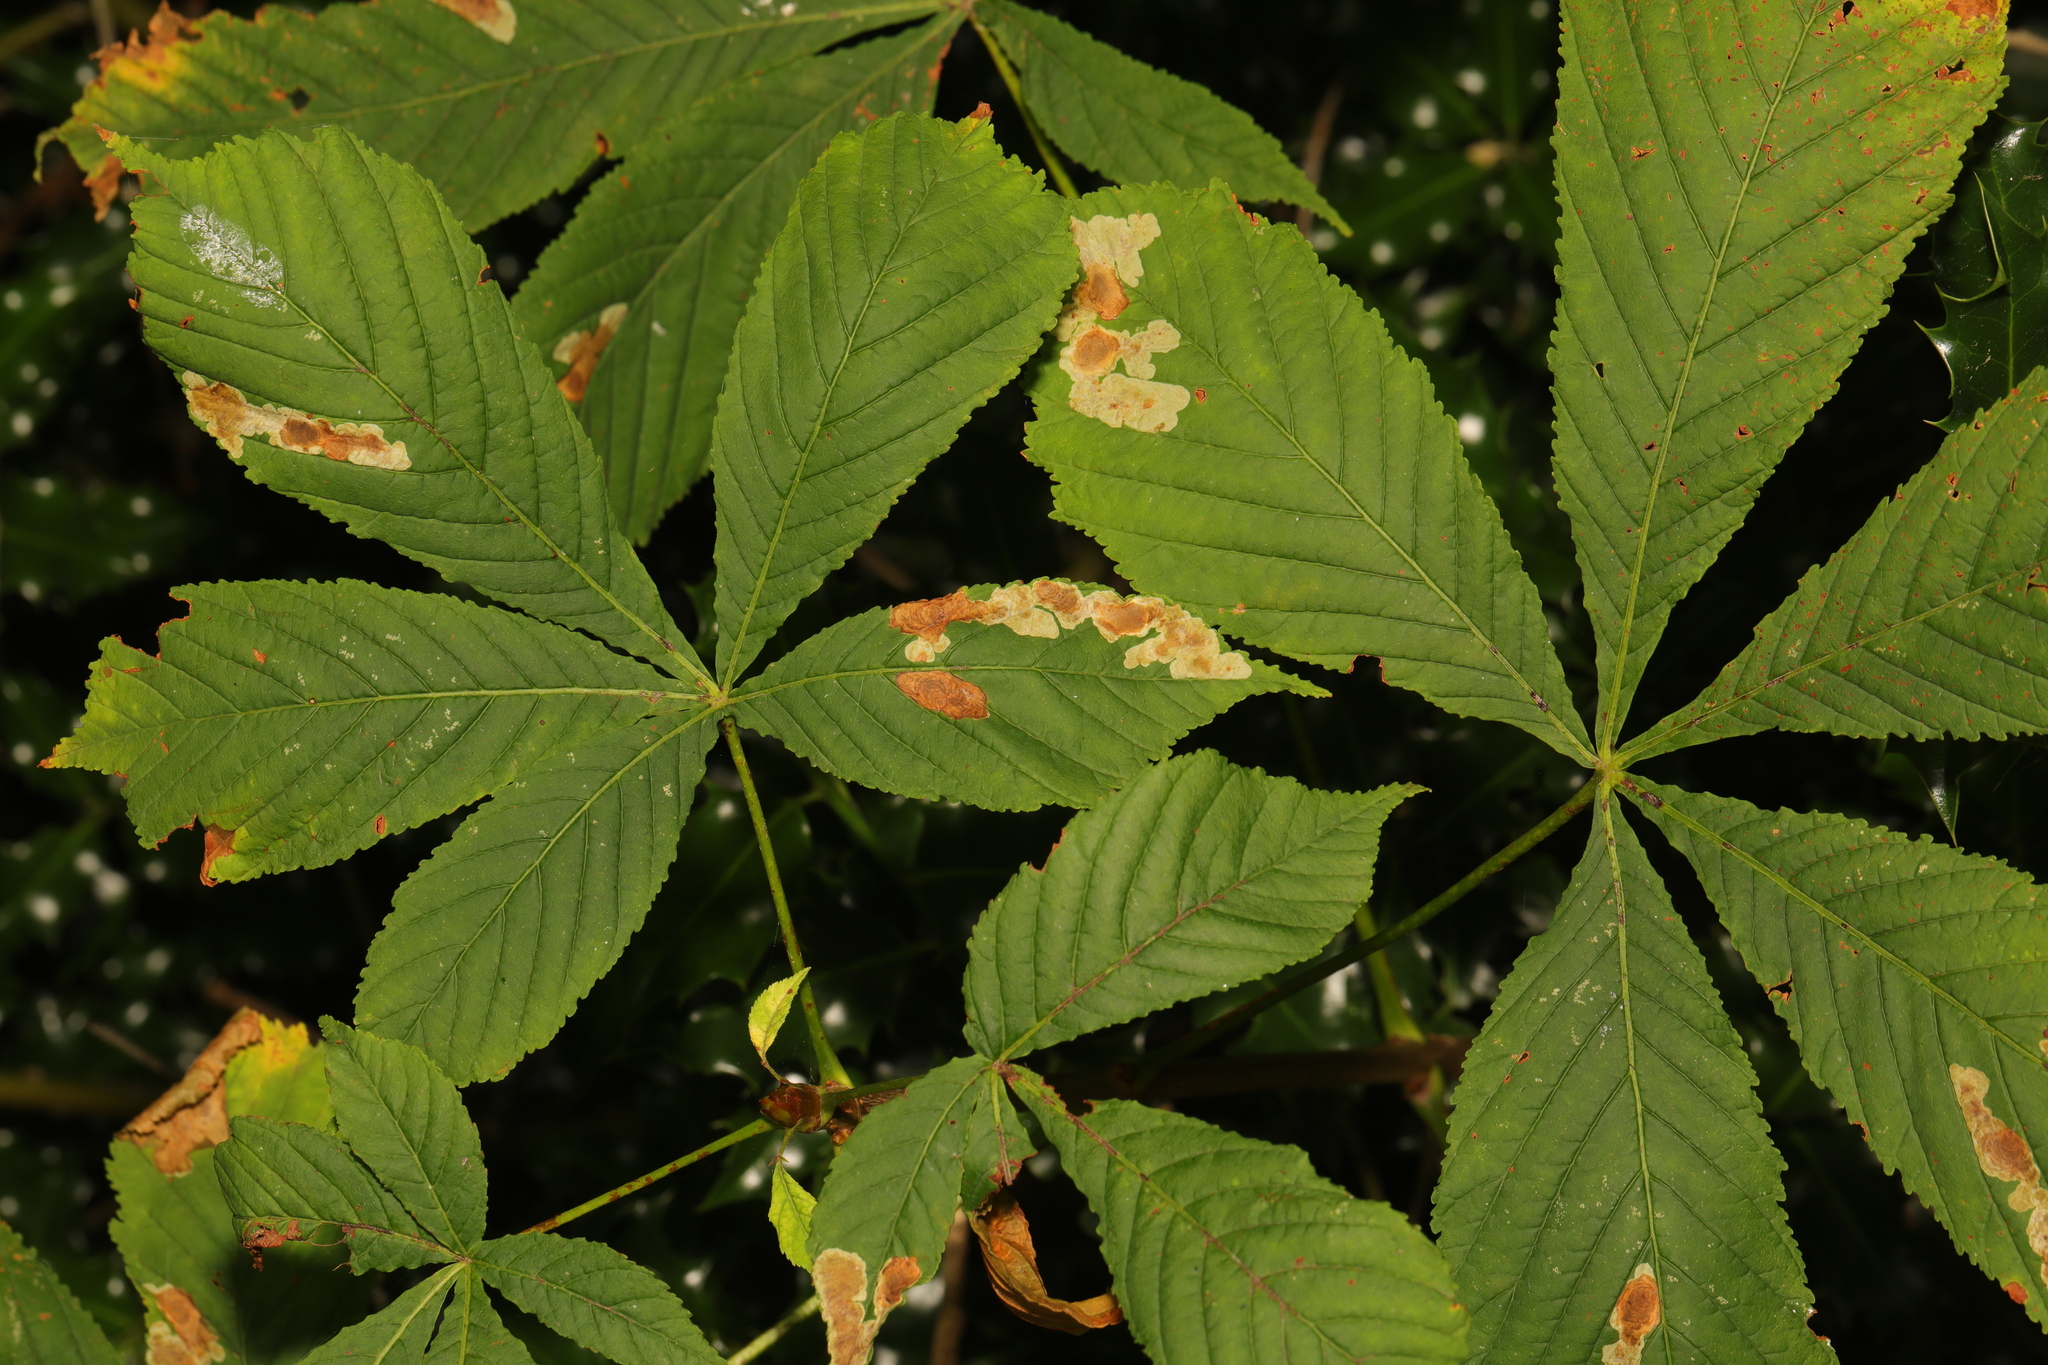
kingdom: Plantae
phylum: Tracheophyta
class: Magnoliopsida
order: Sapindales
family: Sapindaceae
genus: Aesculus
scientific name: Aesculus hippocastanum
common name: Horse-chestnut
